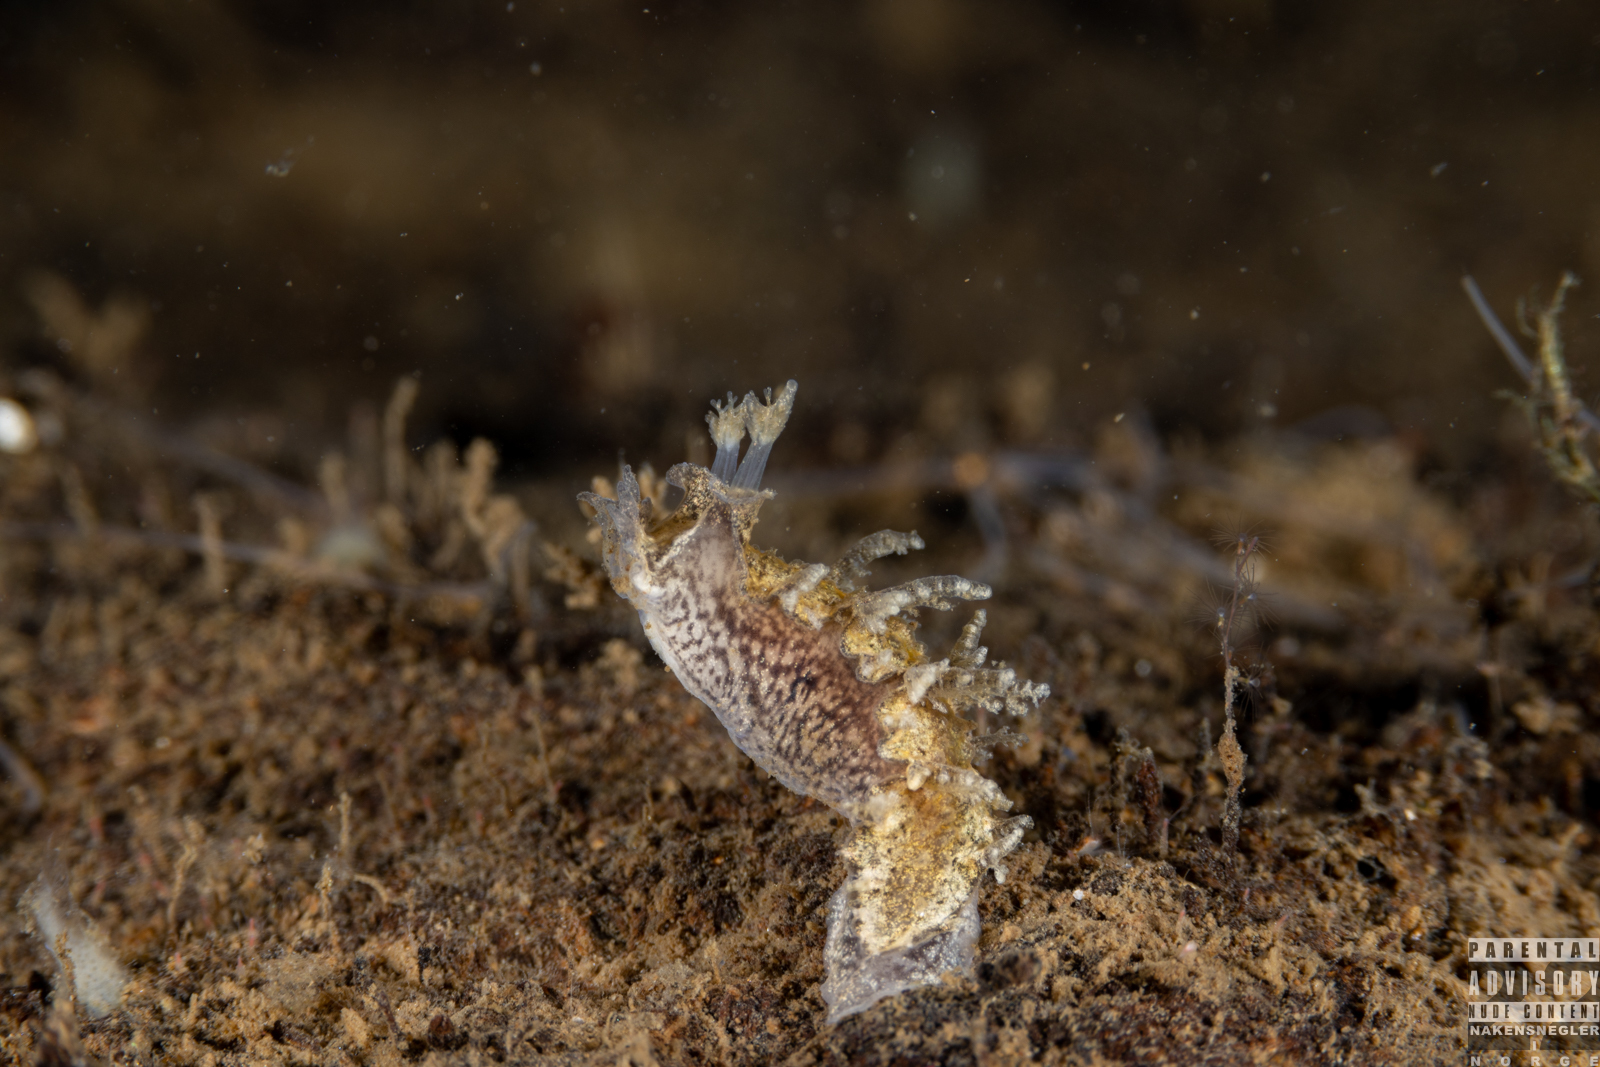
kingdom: Animalia
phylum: Mollusca
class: Gastropoda
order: Nudibranchia
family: Tritoniidae
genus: Duvaucelia
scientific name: Duvaucelia plebeia
